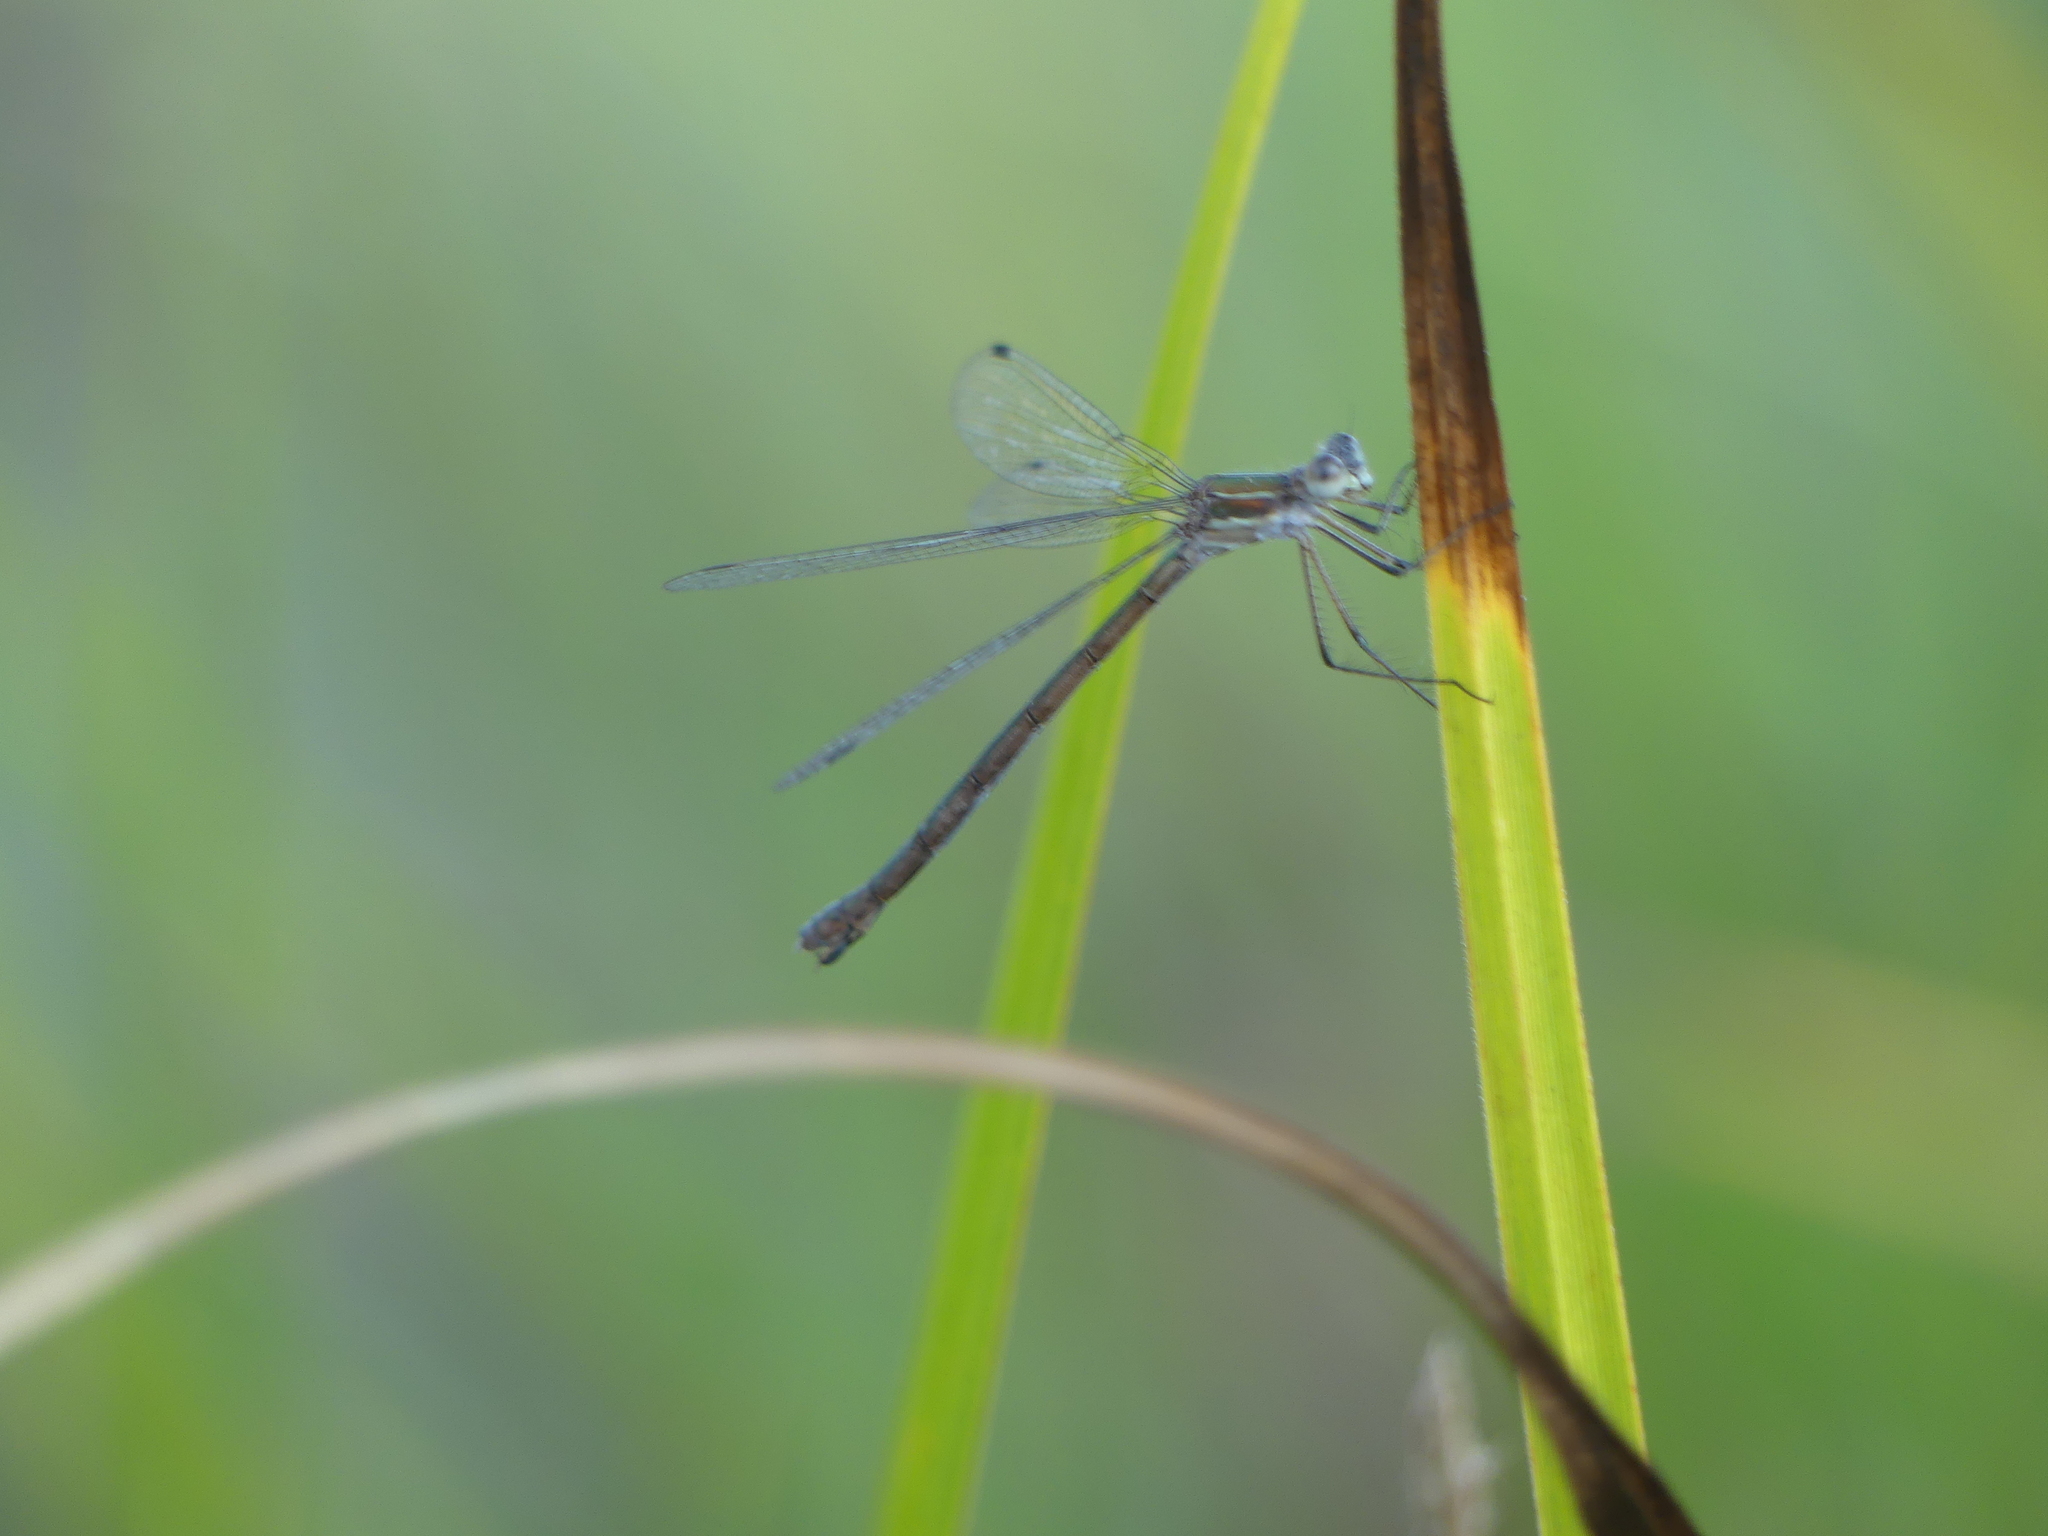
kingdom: Animalia
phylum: Arthropoda
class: Insecta
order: Odonata
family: Lestidae
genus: Lestes
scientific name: Lestes dryas
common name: Scarce emerald damselfly
